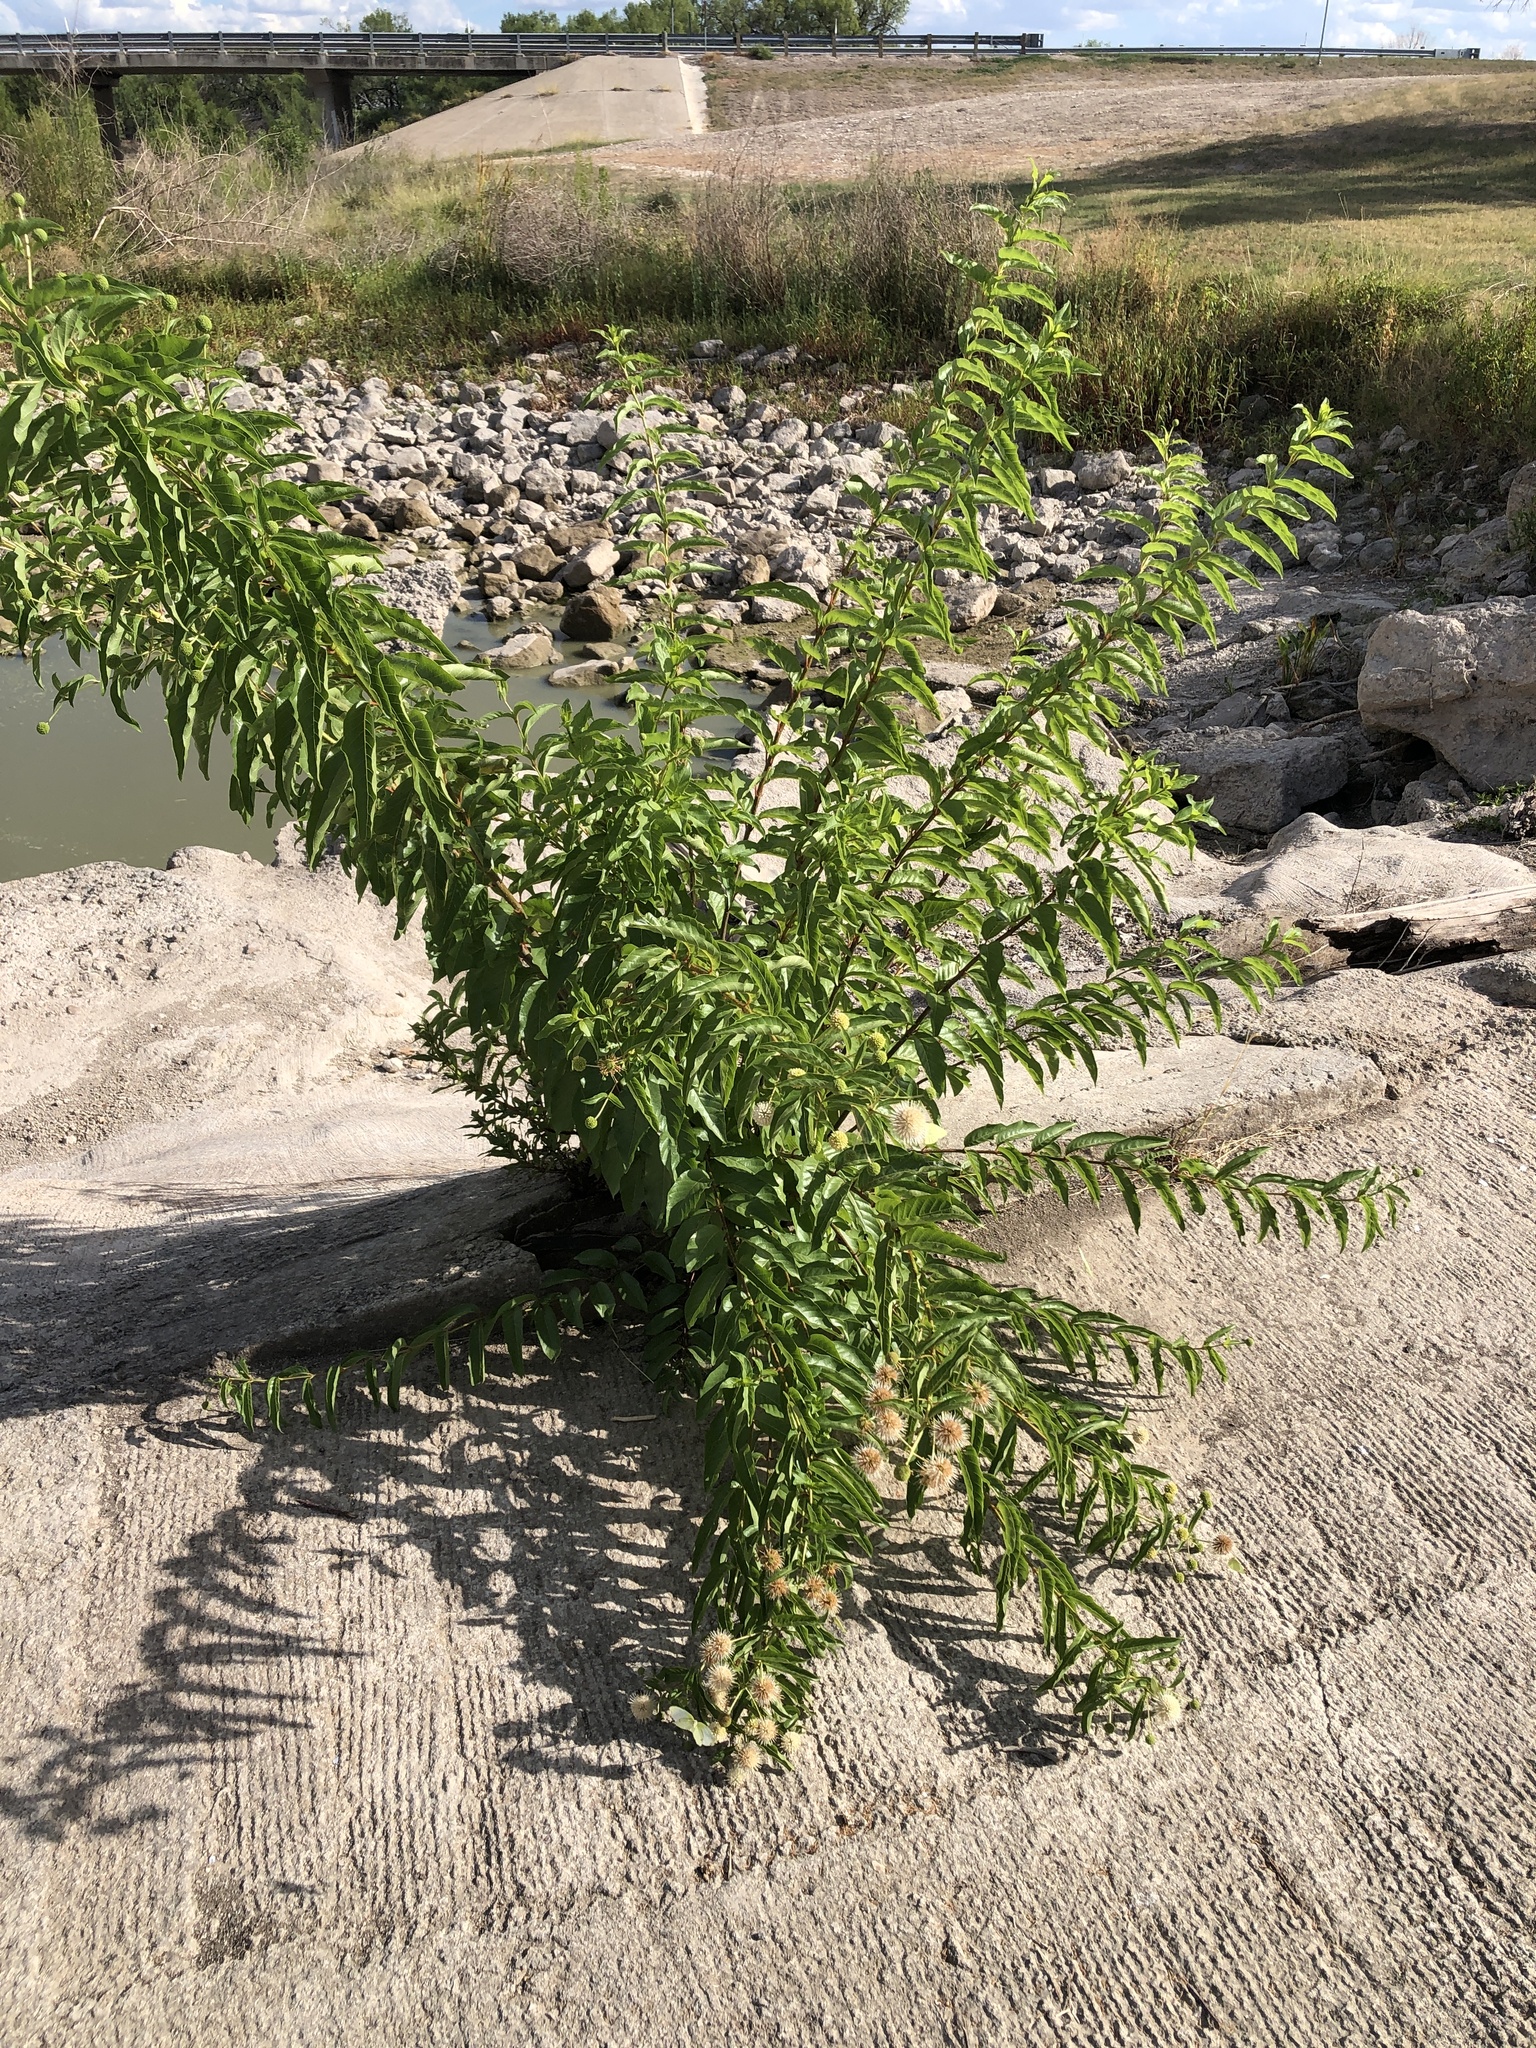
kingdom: Plantae
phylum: Tracheophyta
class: Magnoliopsida
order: Gentianales
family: Rubiaceae
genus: Cephalanthus
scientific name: Cephalanthus occidentalis
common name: Button-willow
